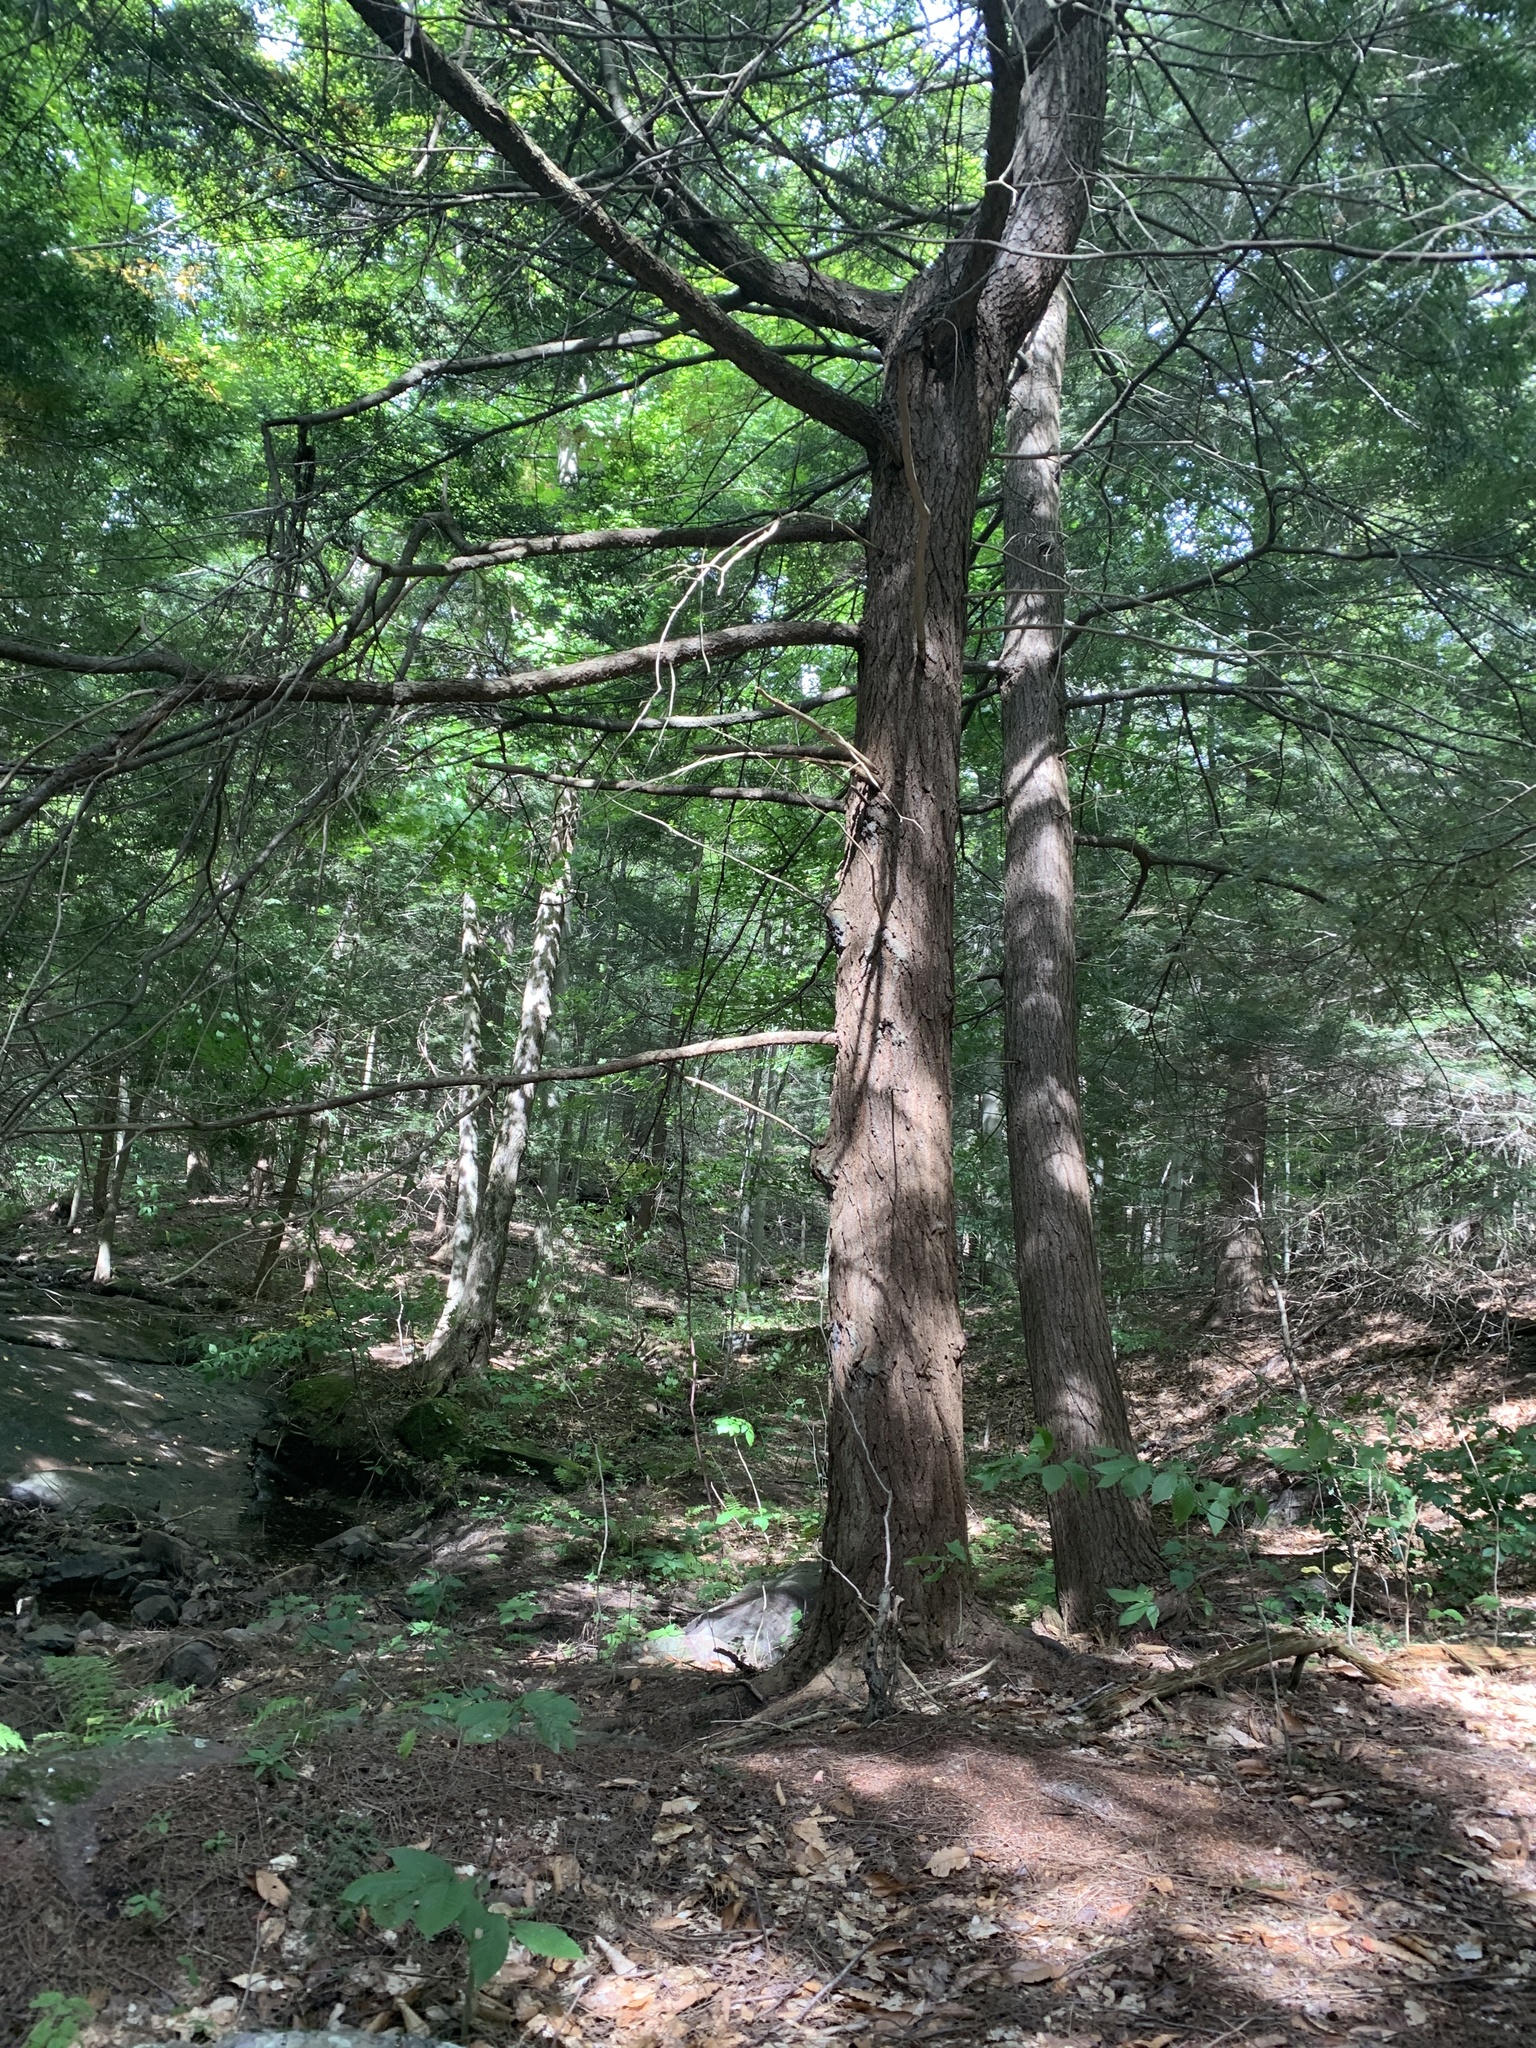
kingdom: Plantae
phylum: Tracheophyta
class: Pinopsida
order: Pinales
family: Pinaceae
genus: Tsuga
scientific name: Tsuga canadensis
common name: Eastern hemlock
